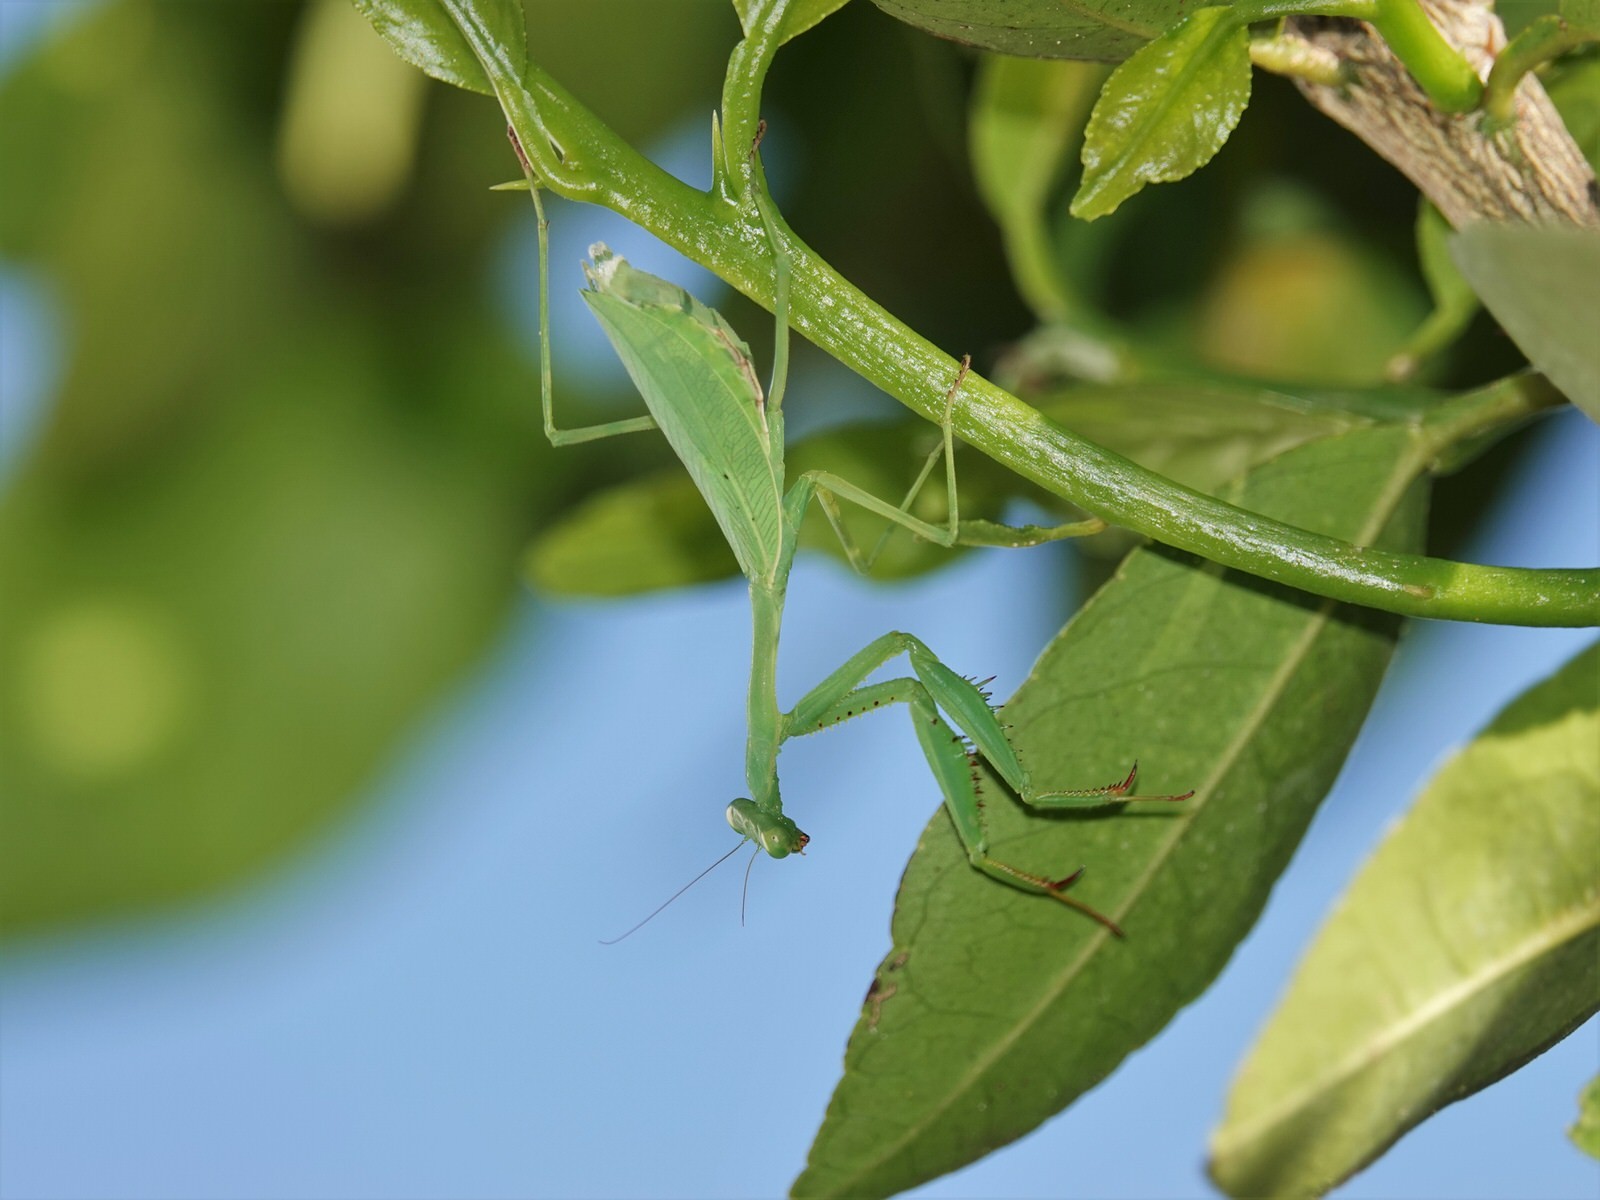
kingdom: Animalia
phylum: Arthropoda
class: Insecta
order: Mantodea
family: Miomantidae
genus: Miomantis
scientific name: Miomantis caffra
